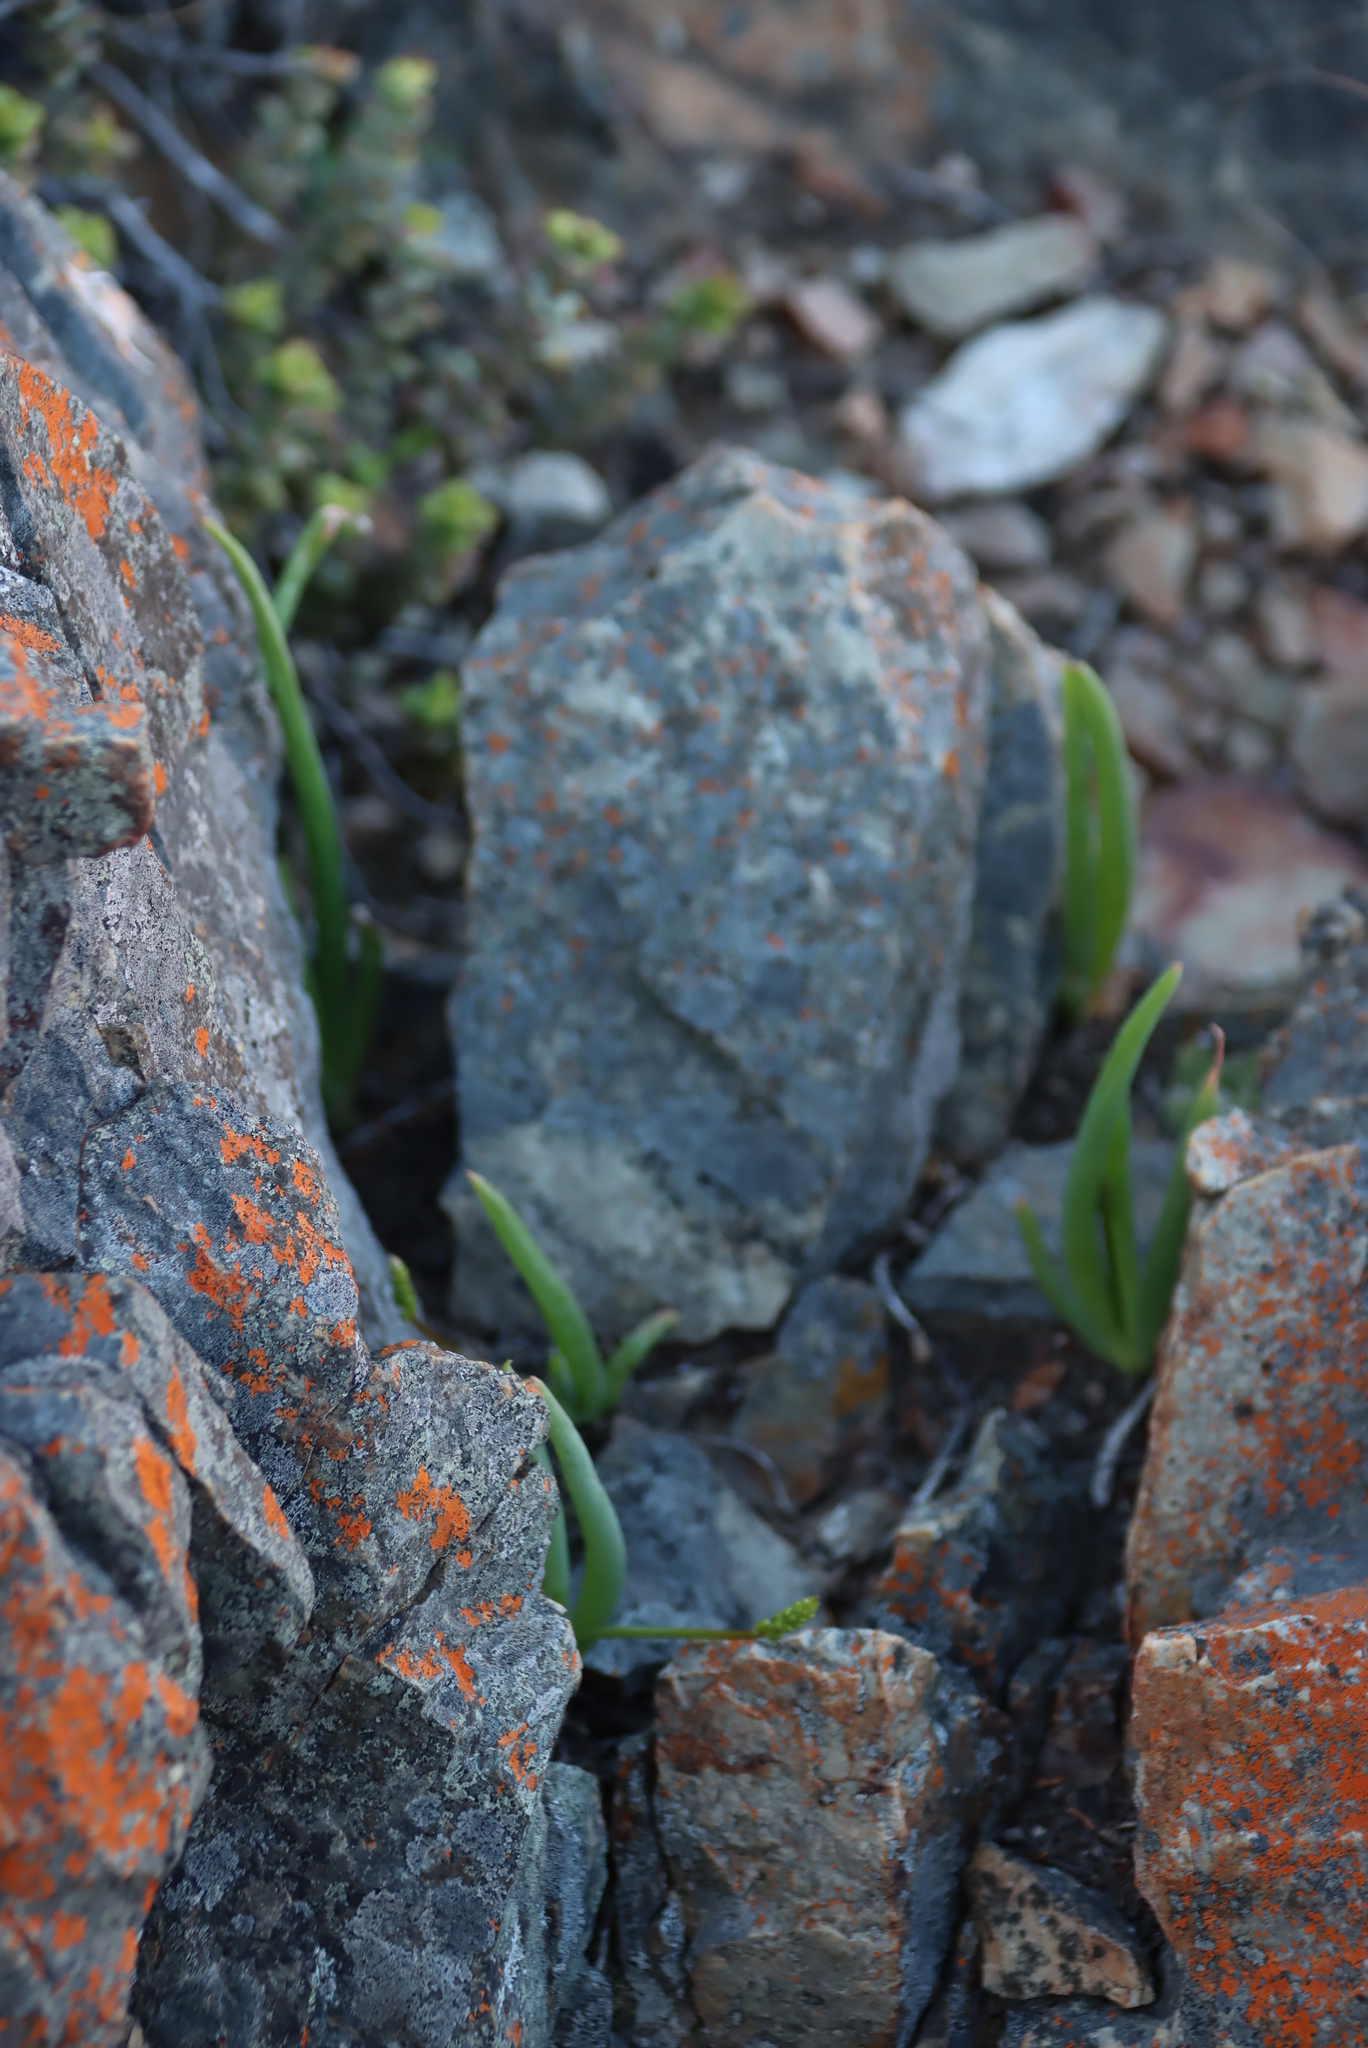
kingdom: Plantae
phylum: Tracheophyta
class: Liliopsida
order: Asparagales
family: Asphodelaceae
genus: Bulbine
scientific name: Bulbine rupicola
